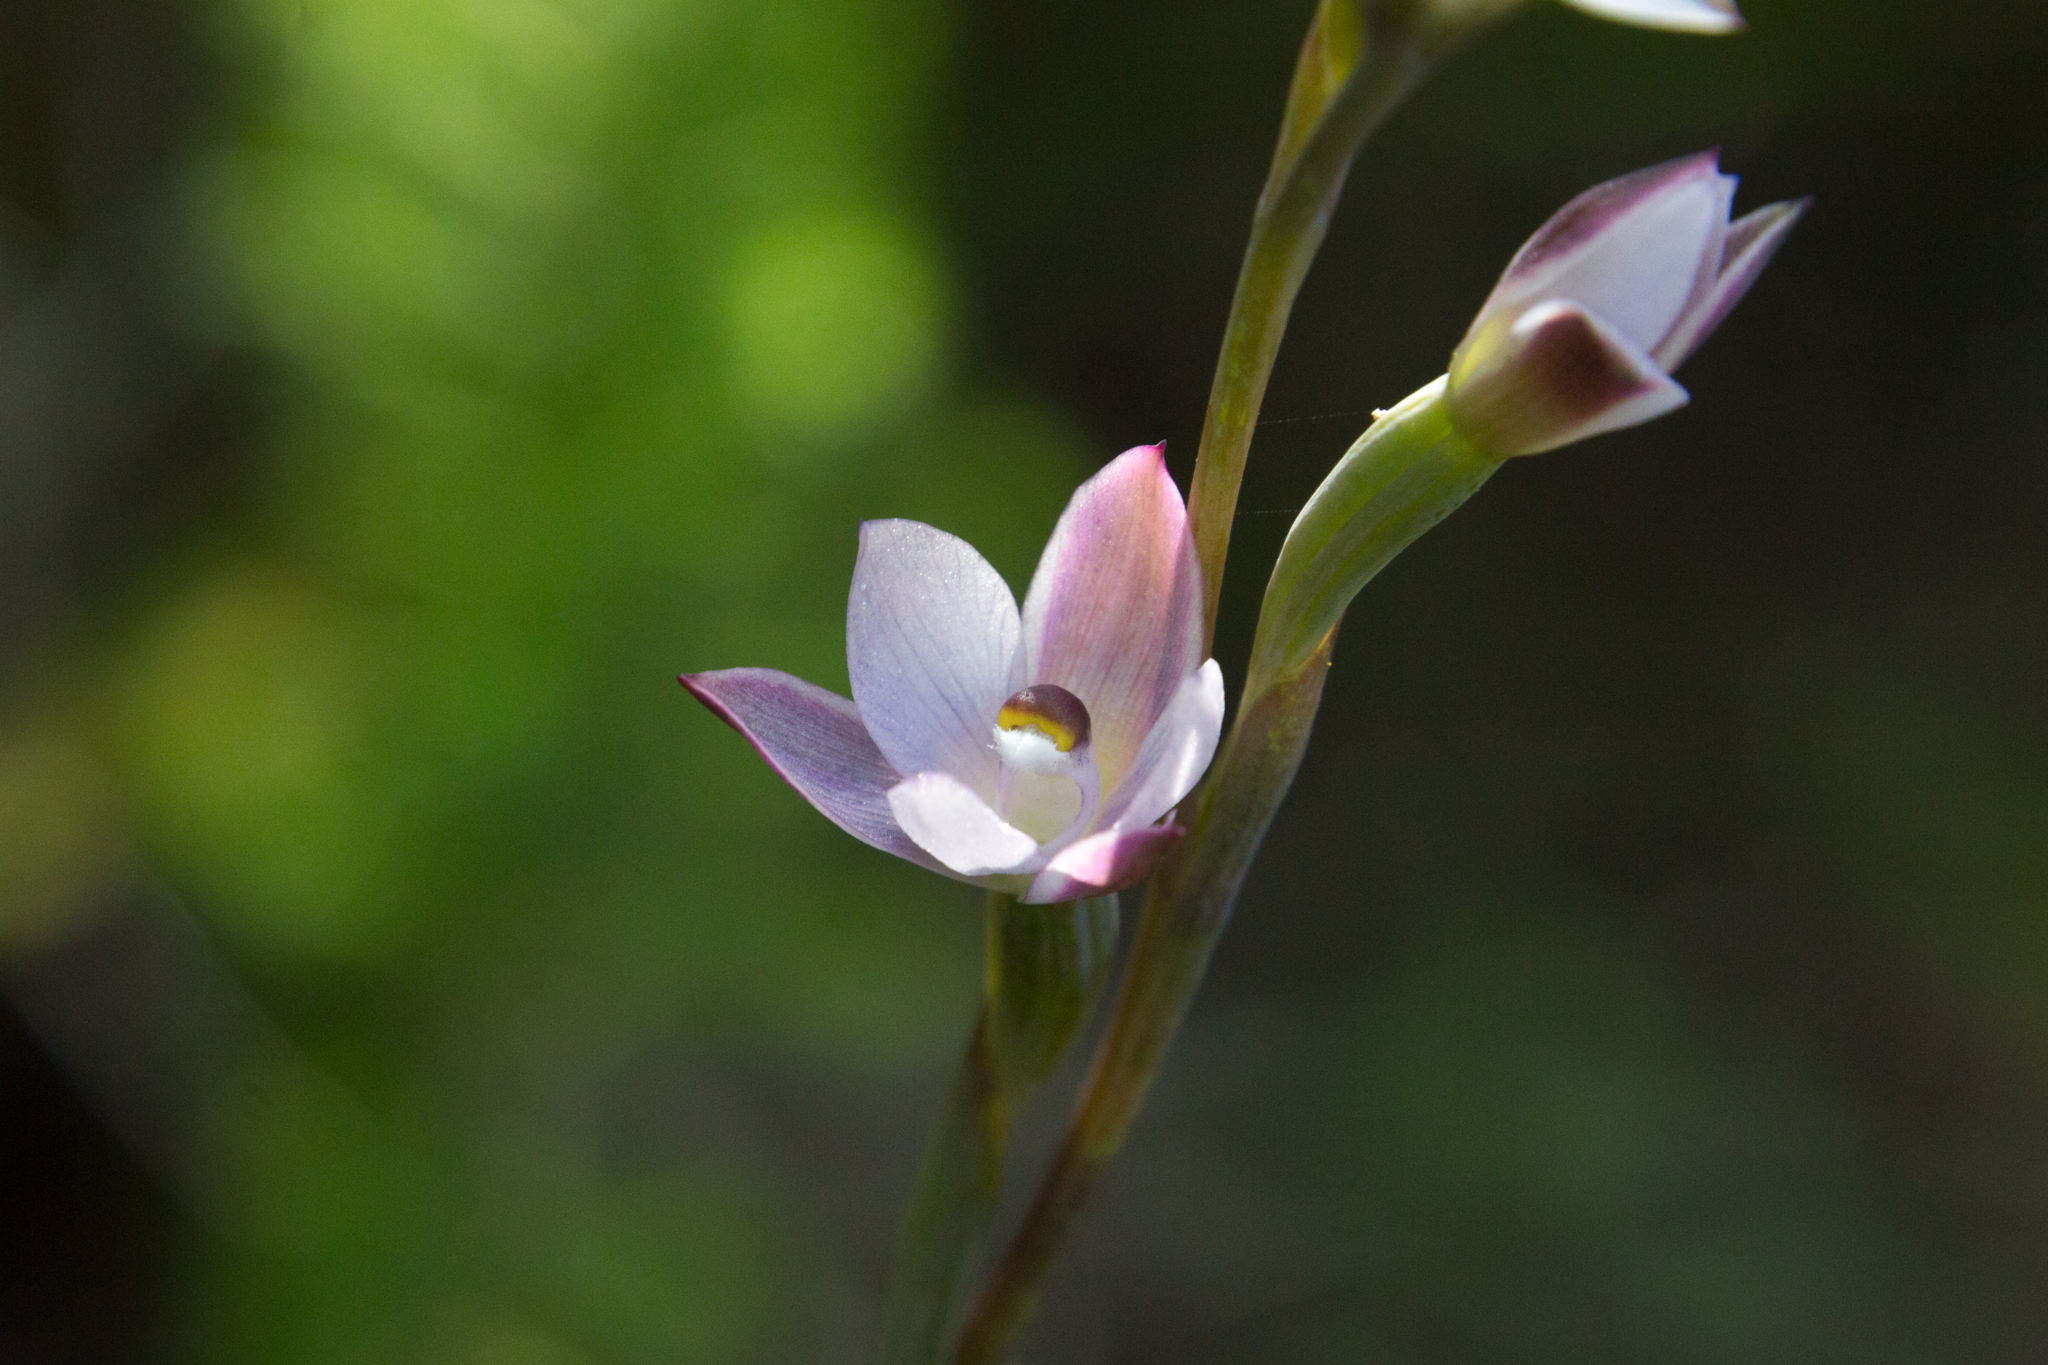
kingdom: Plantae
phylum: Tracheophyta
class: Liliopsida
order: Asparagales
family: Orchidaceae
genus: Thelymitra
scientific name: Thelymitra longifolia
